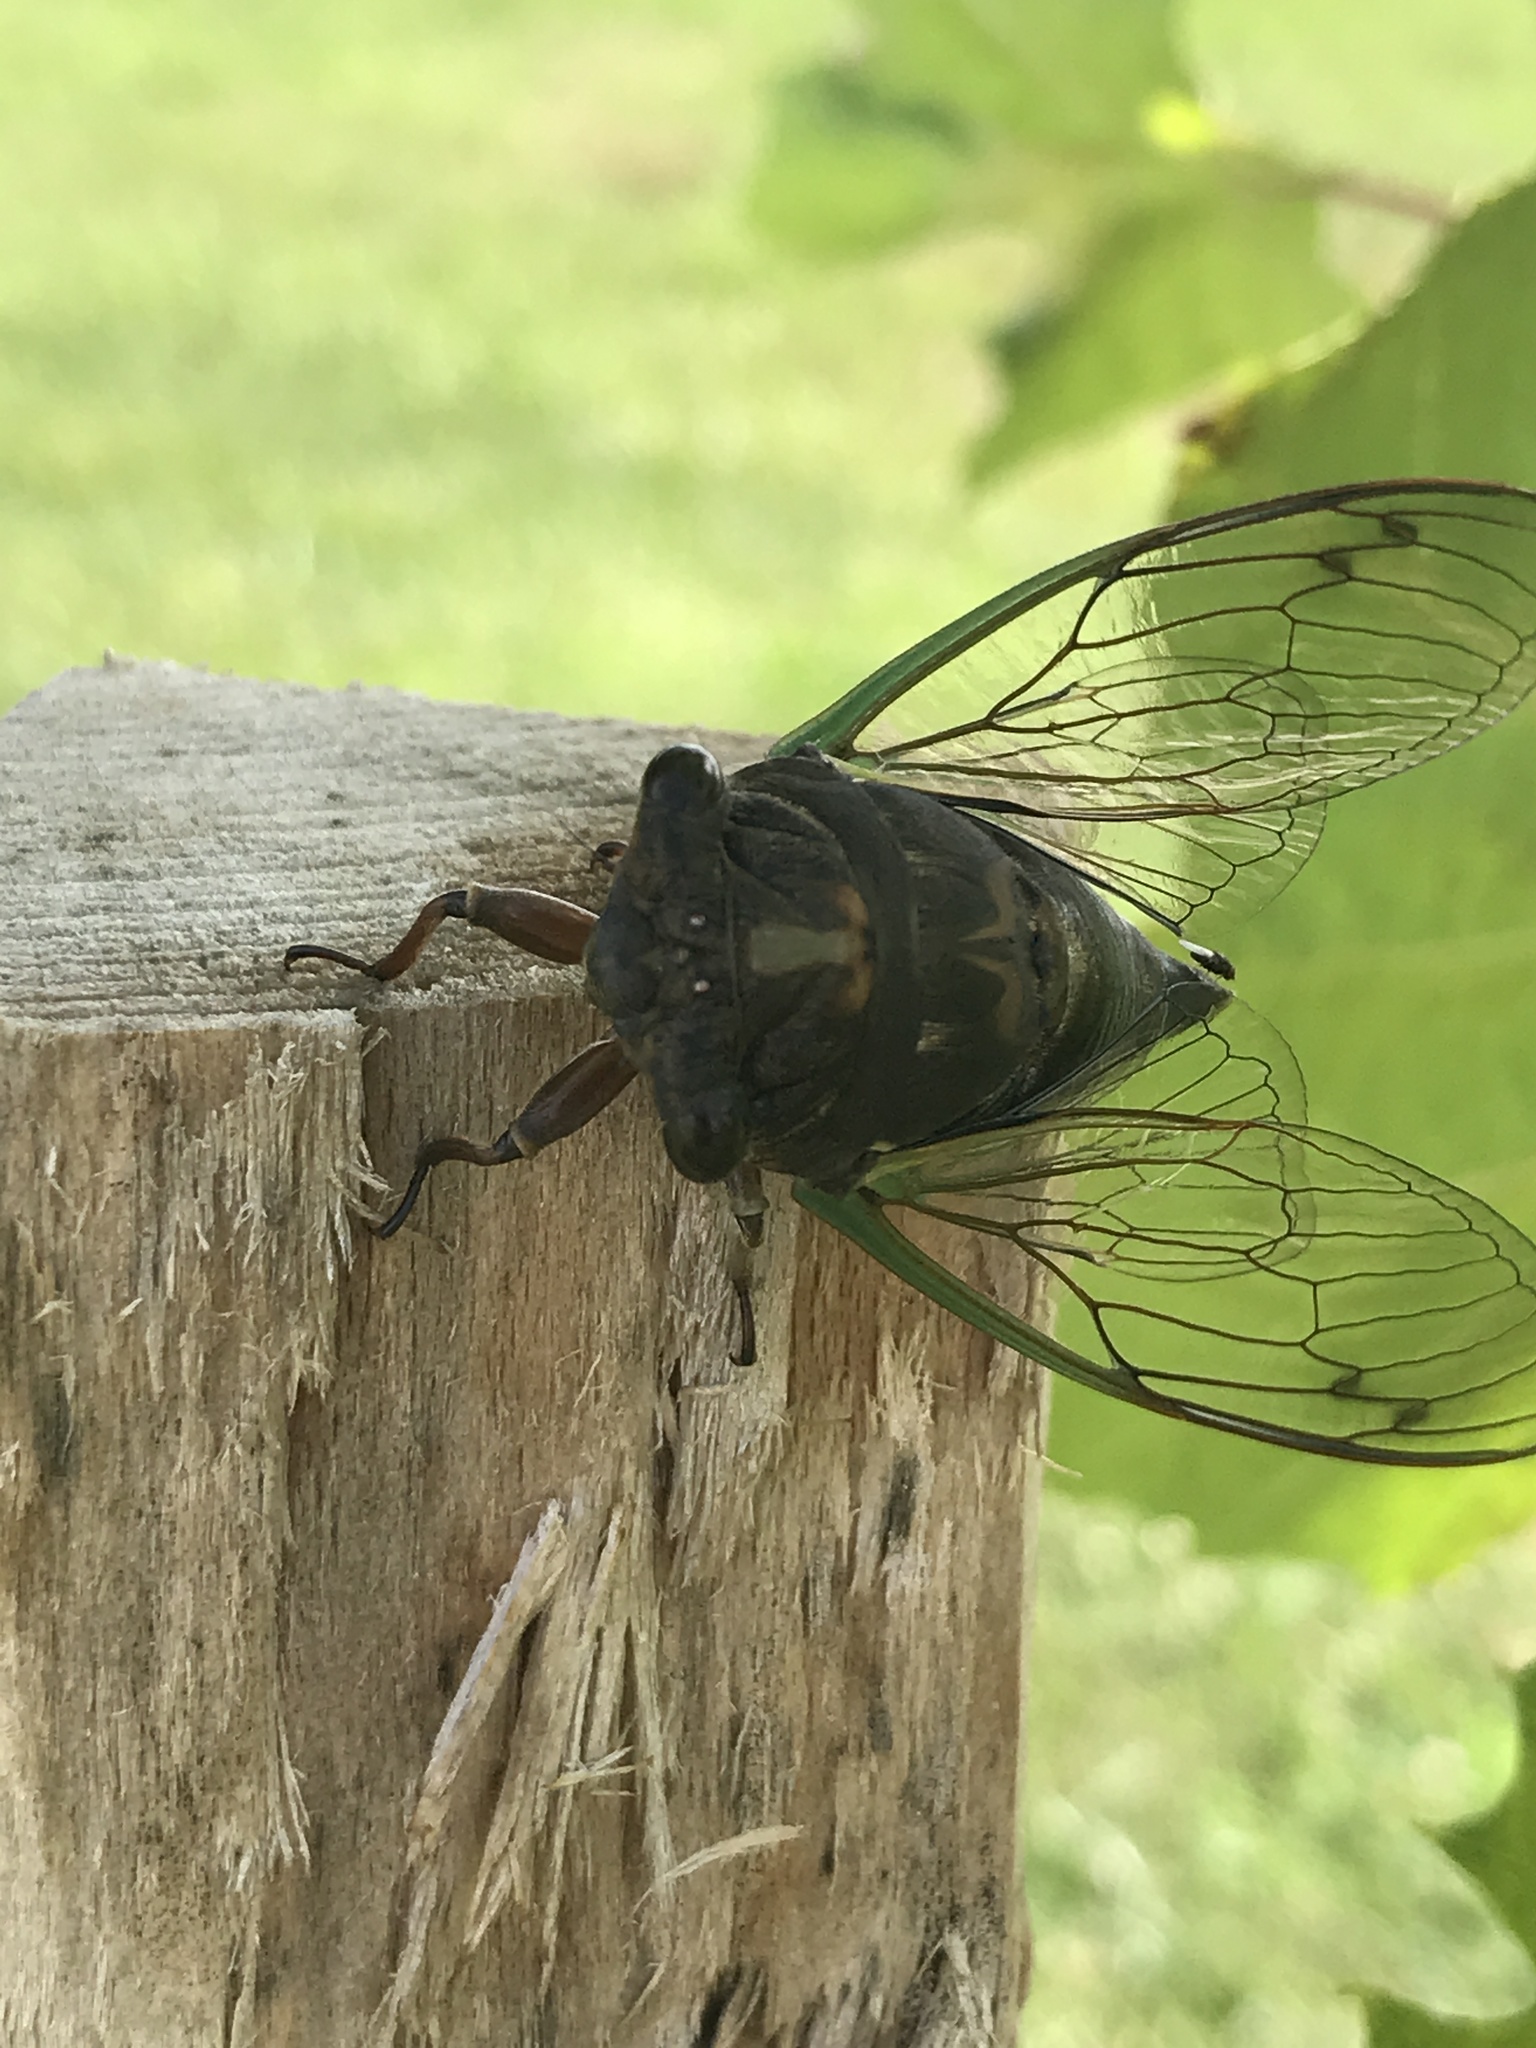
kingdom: Animalia
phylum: Arthropoda
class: Insecta
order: Hemiptera
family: Cicadidae
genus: Neotibicen
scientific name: Neotibicen lyricen
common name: Lyric cicada
